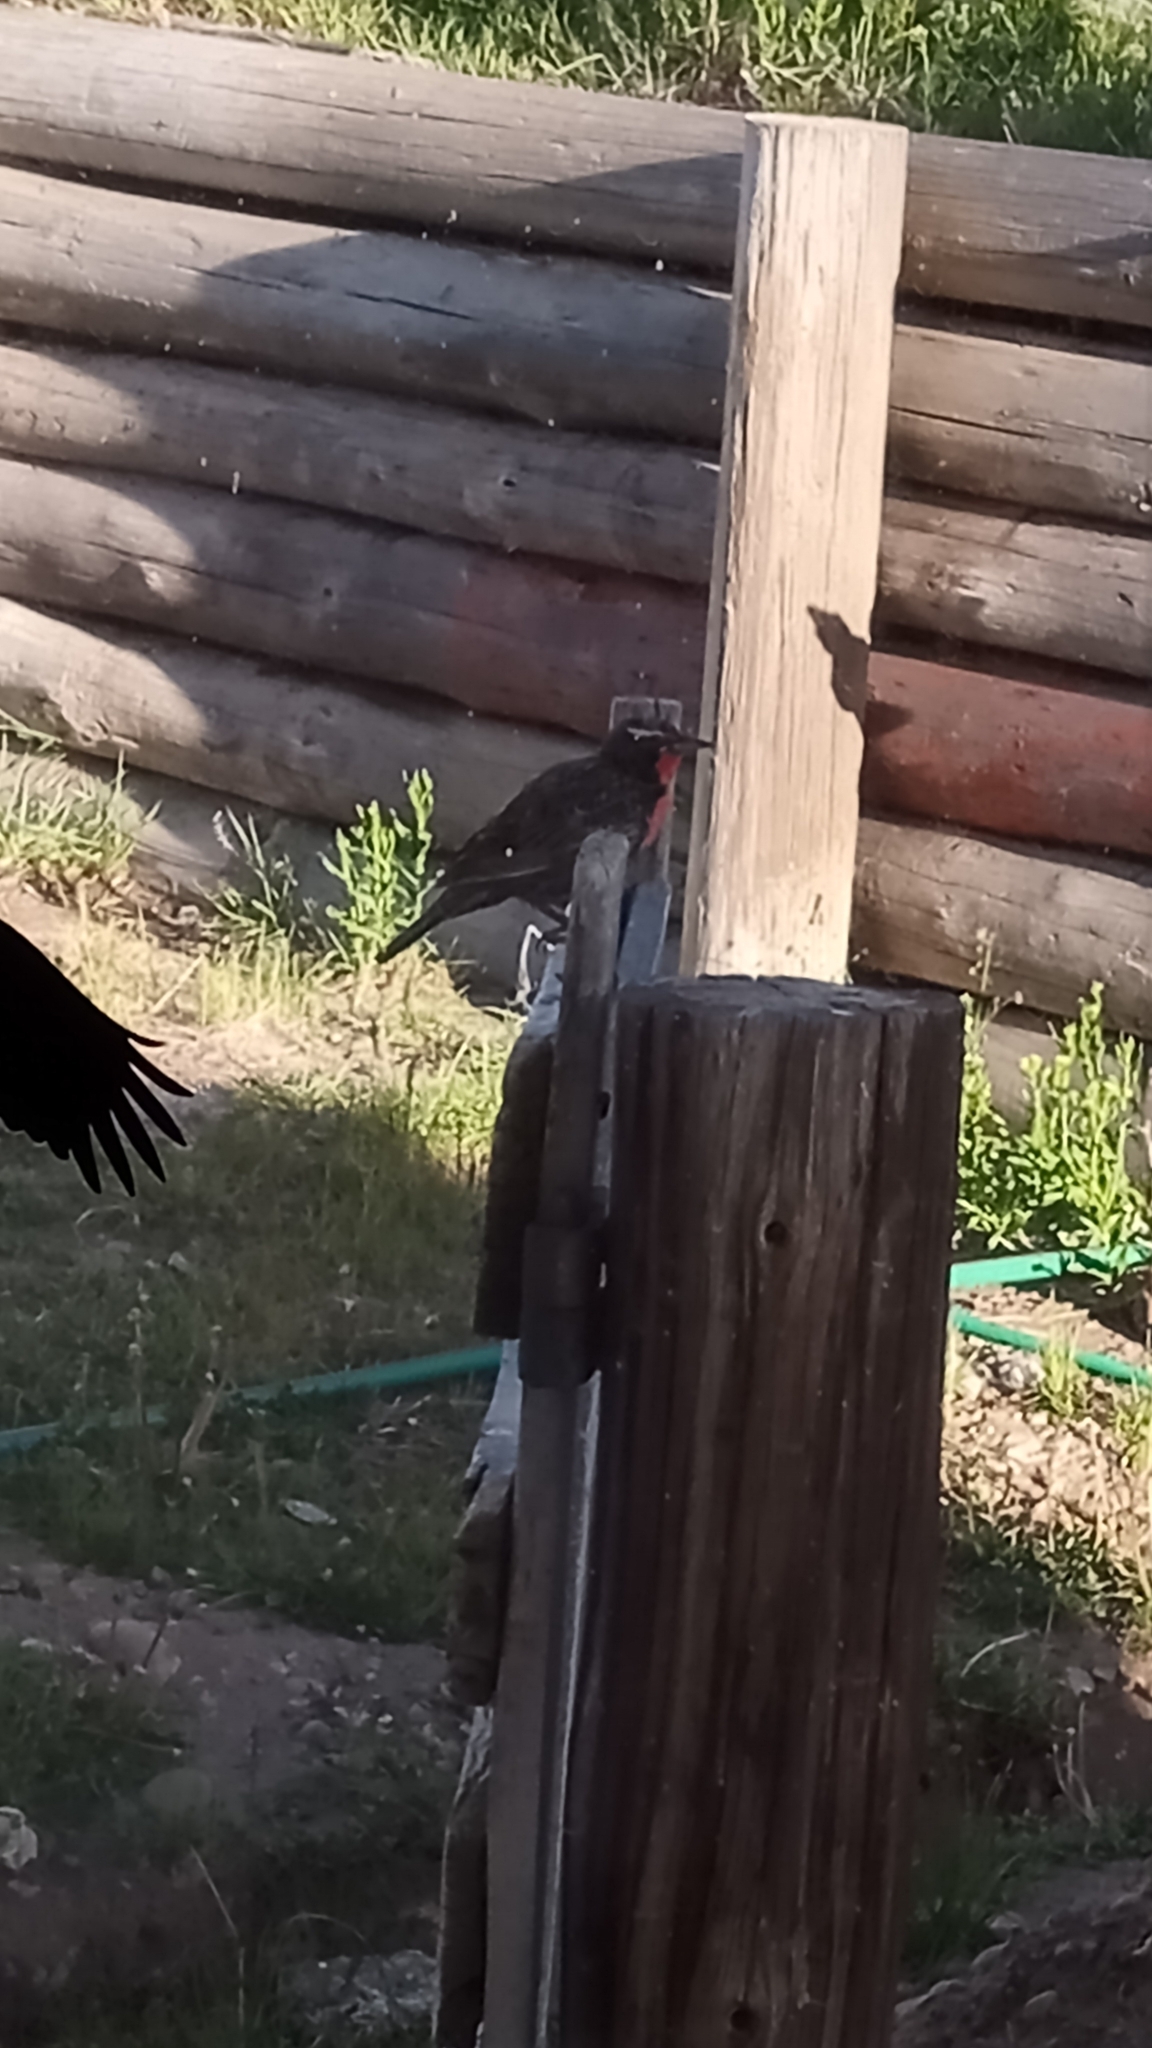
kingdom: Animalia
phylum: Chordata
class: Aves
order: Passeriformes
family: Icteridae
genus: Sturnella
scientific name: Sturnella loyca
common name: Long-tailed meadowlark
